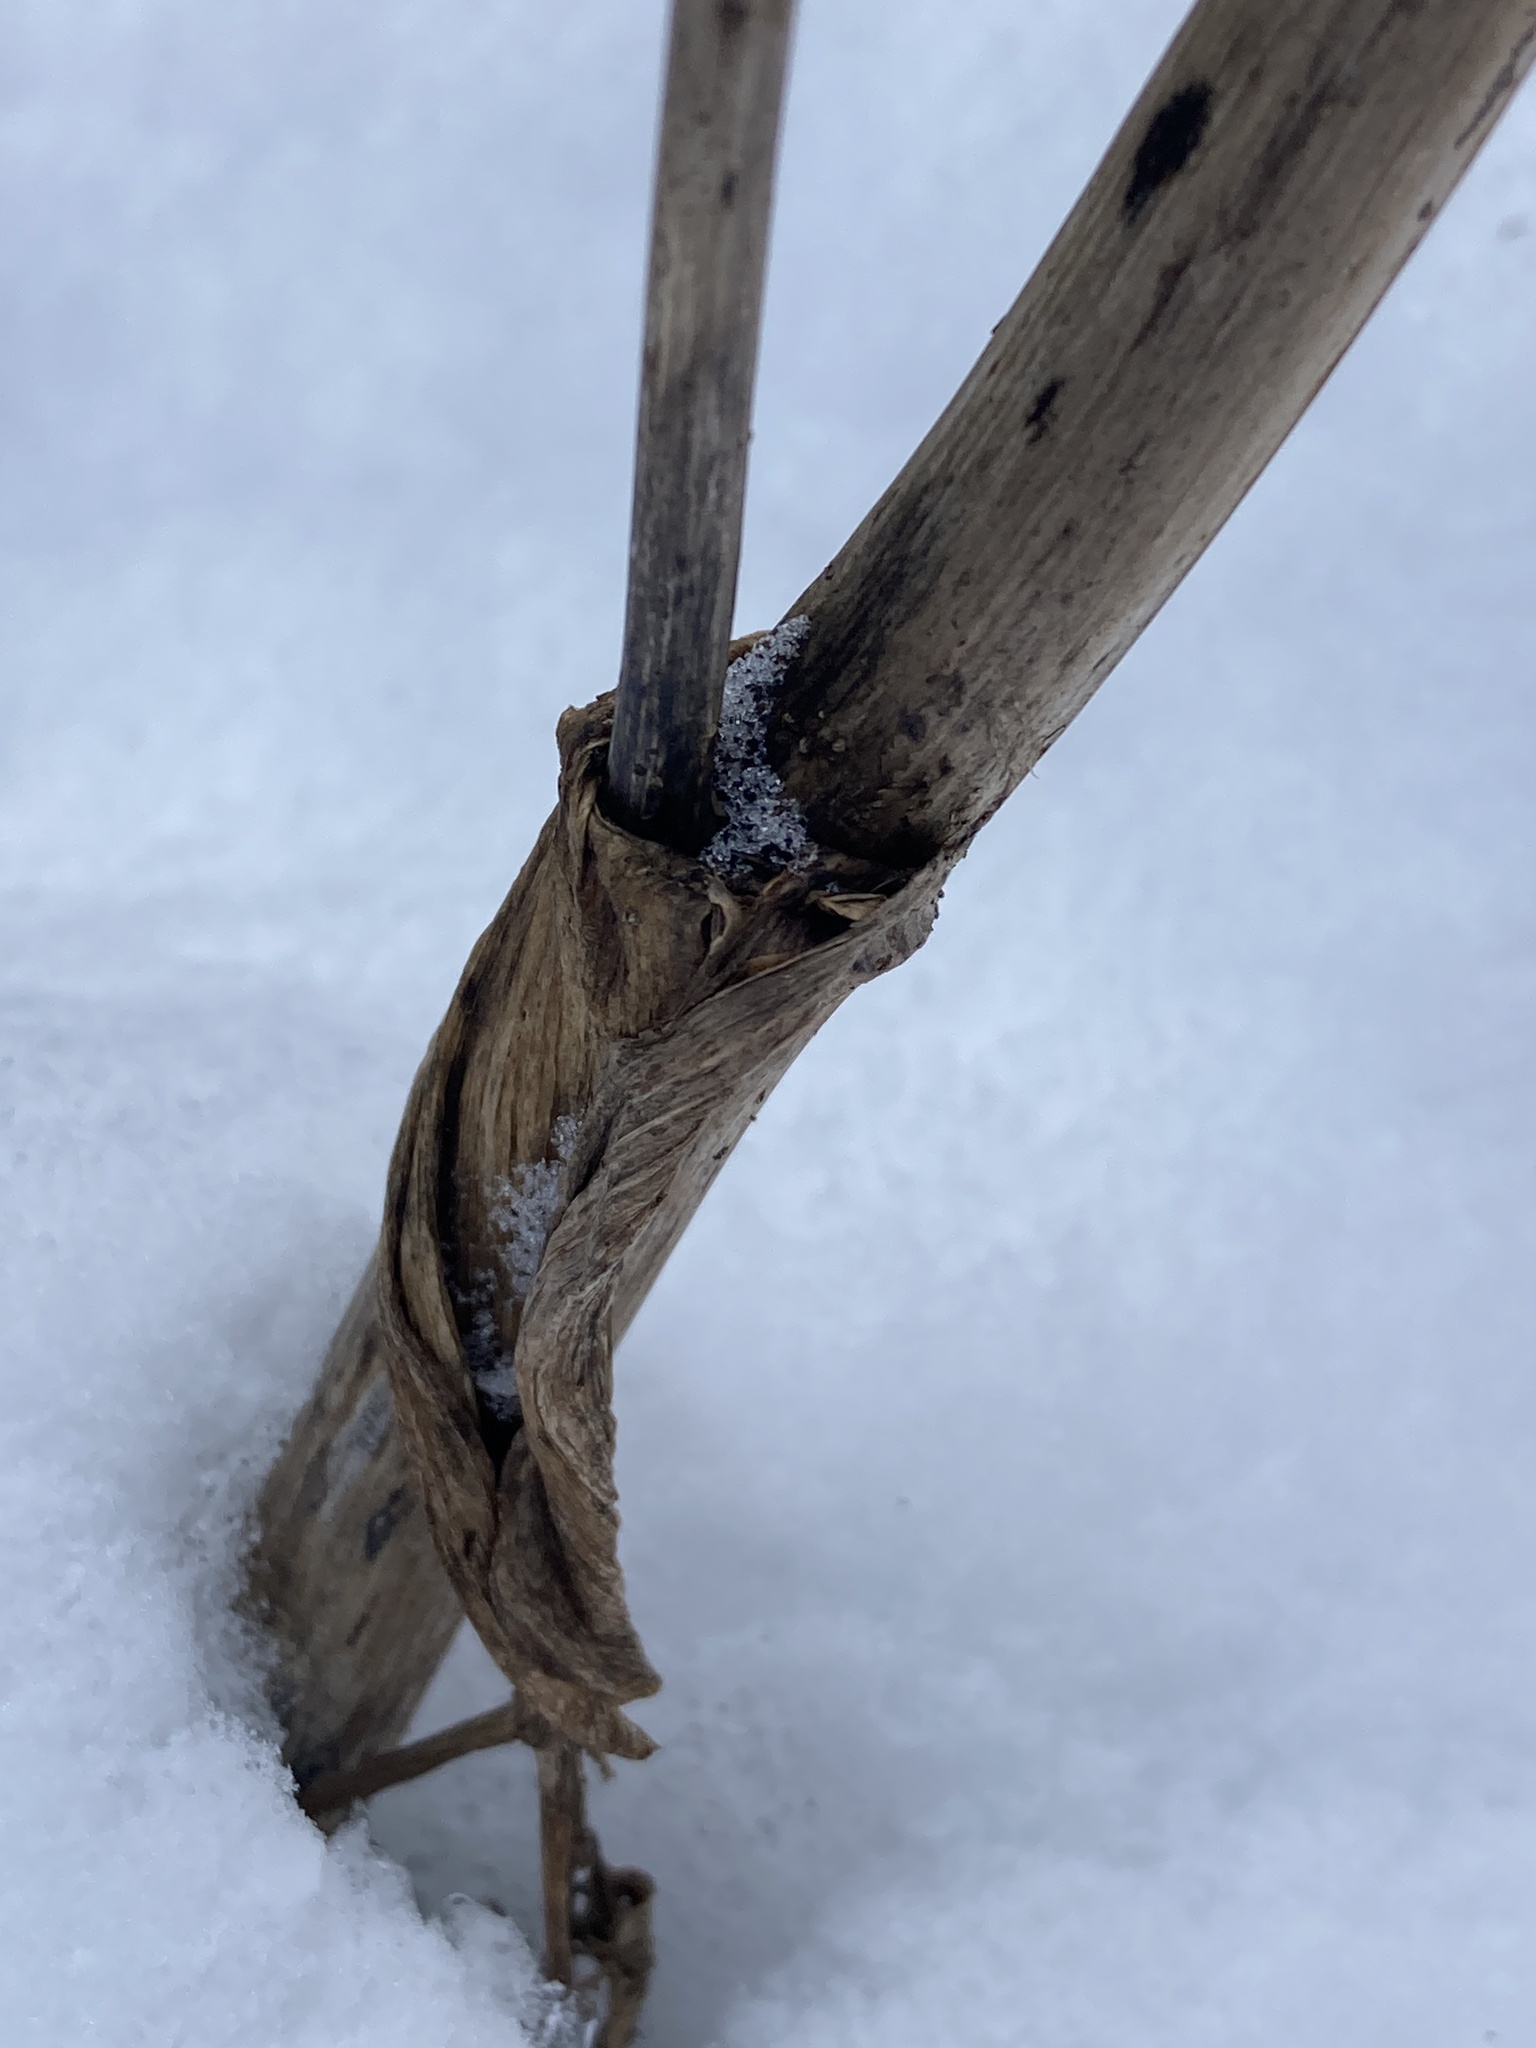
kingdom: Plantae
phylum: Tracheophyta
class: Magnoliopsida
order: Apiales
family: Apiaceae
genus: Angelica
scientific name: Angelica sylvestris
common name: Wild angelica
